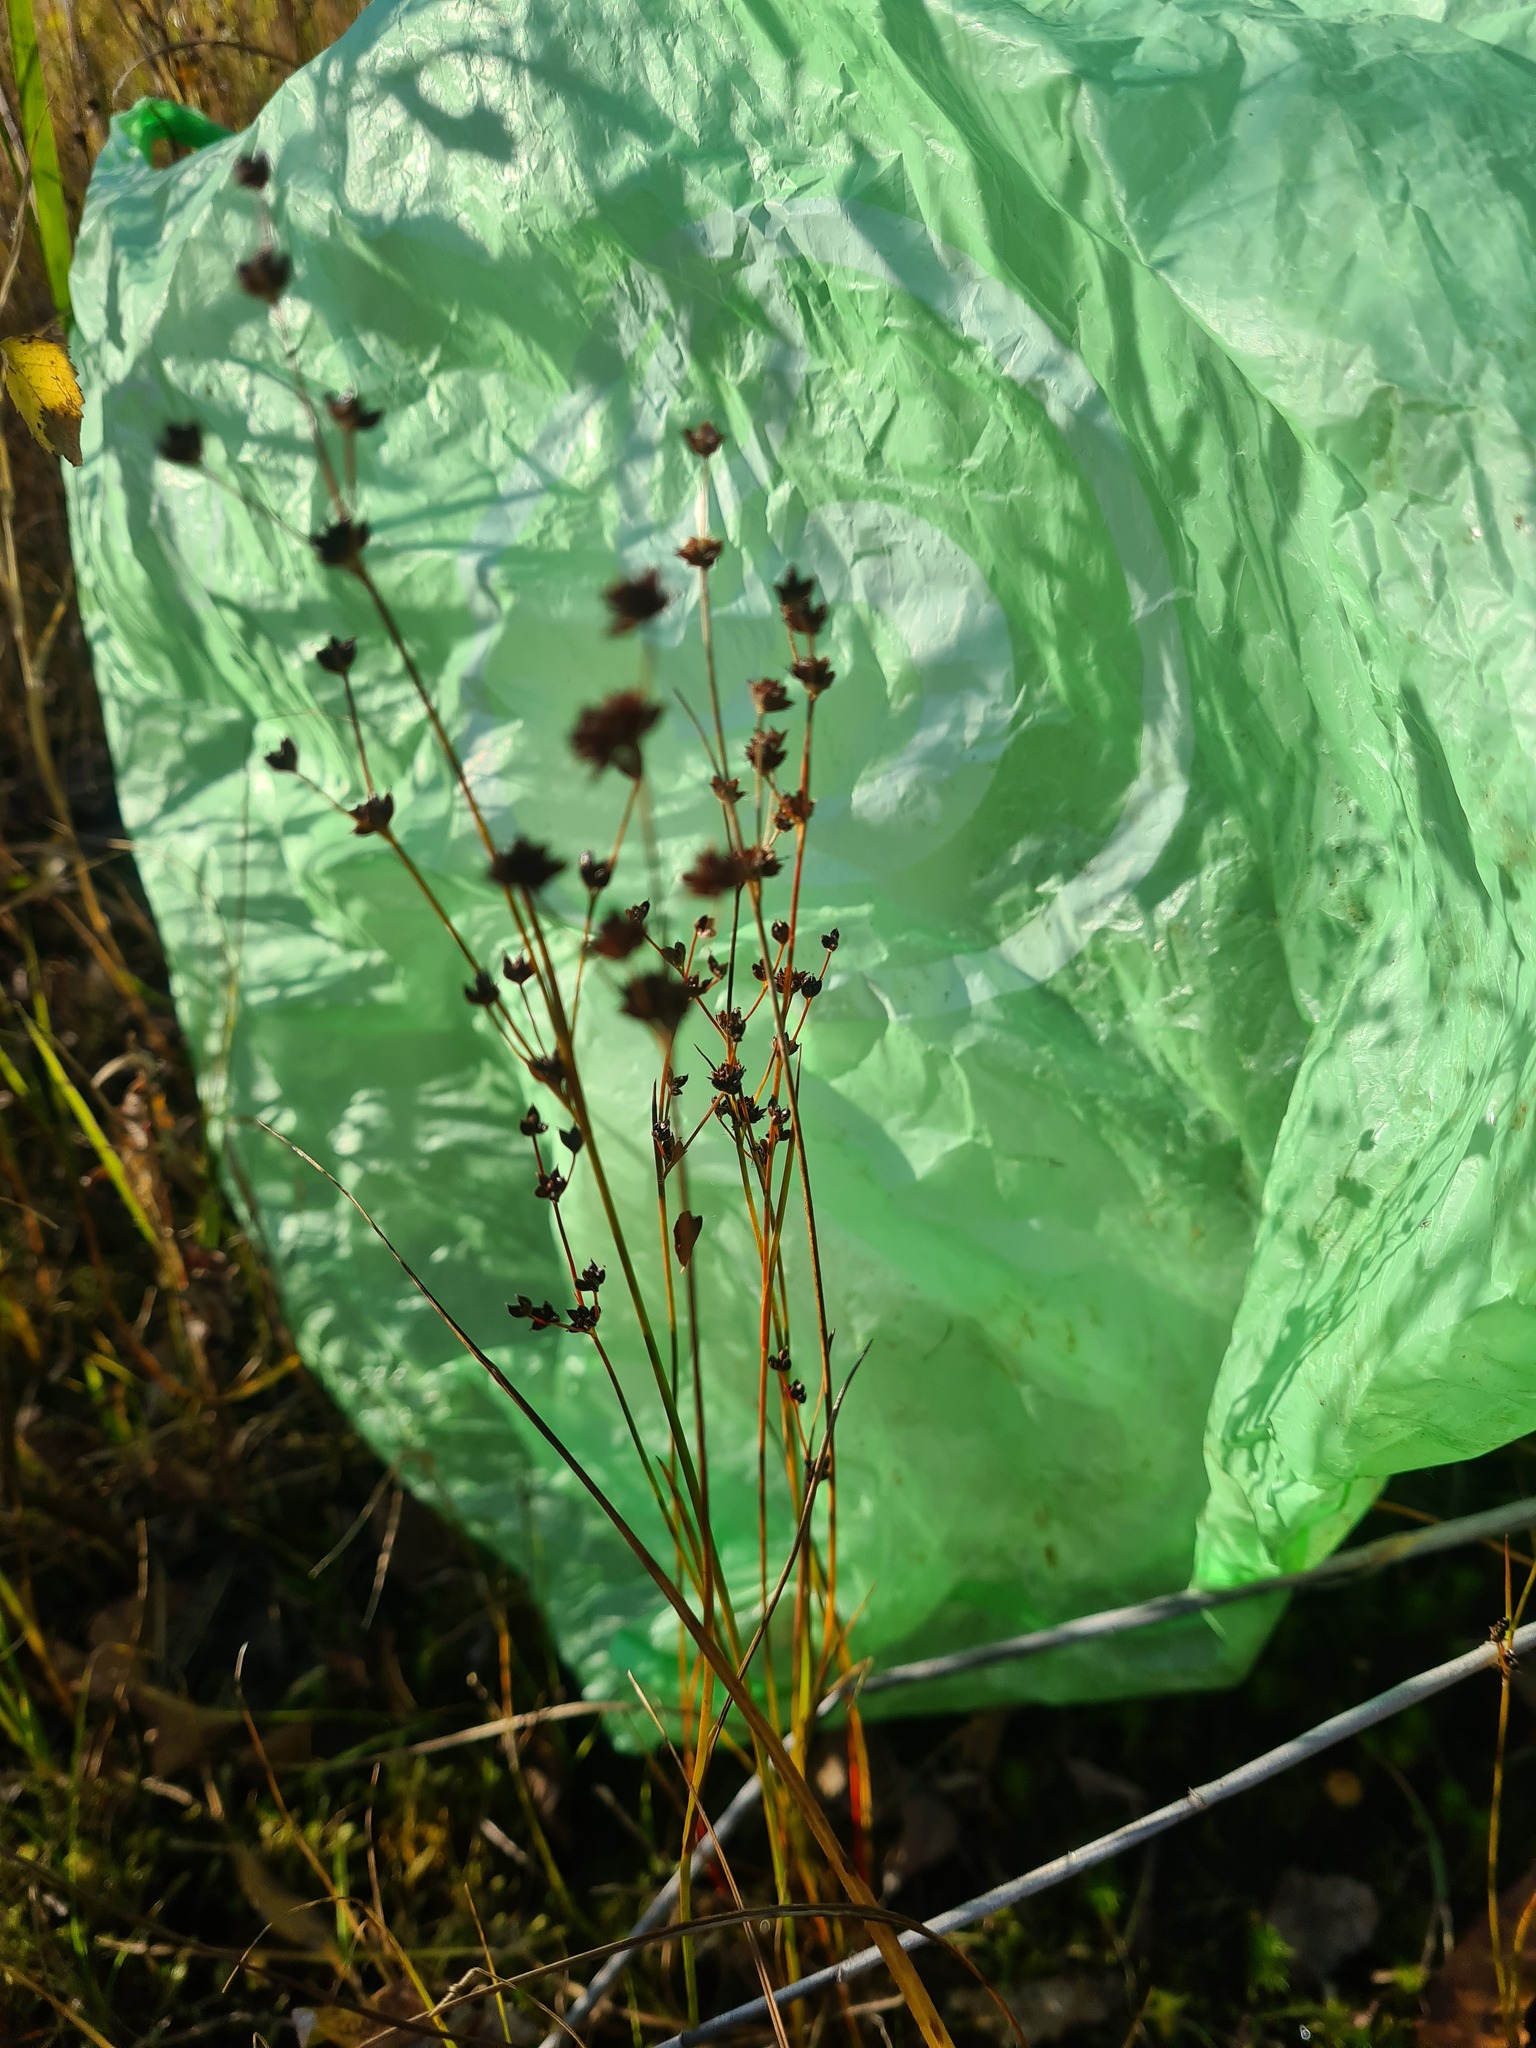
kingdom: Plantae
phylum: Tracheophyta
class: Liliopsida
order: Poales
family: Juncaceae
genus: Juncus
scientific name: Juncus alpinoarticulatus
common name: Alpine rush
